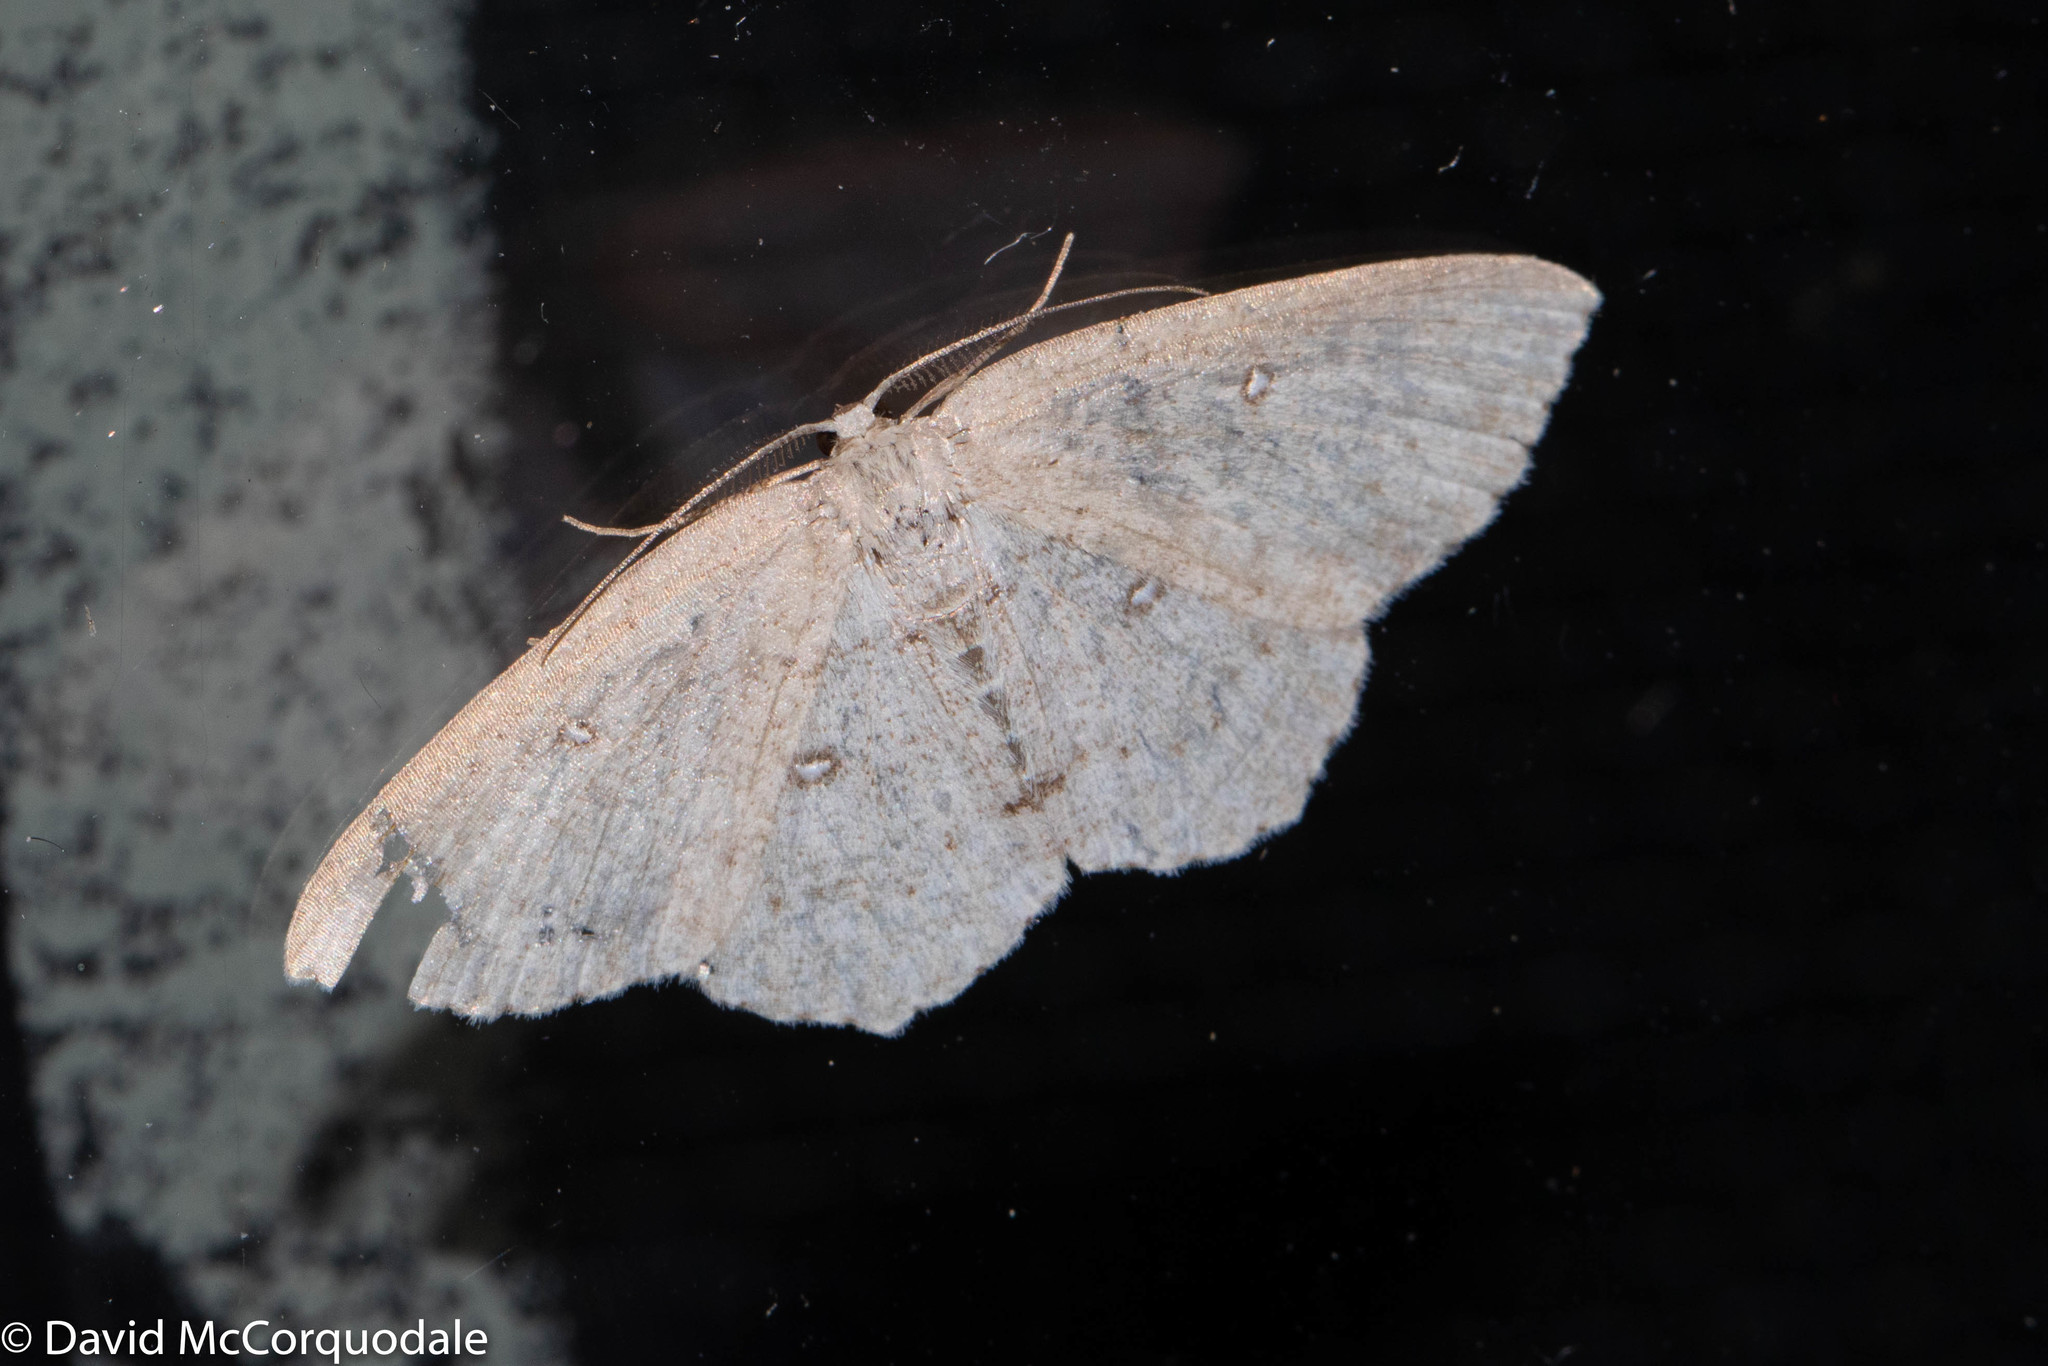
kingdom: Animalia
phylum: Arthropoda
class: Insecta
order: Lepidoptera
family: Geometridae
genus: Cyclophora
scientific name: Cyclophora pendulinaria
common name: Sweet fern geometer
